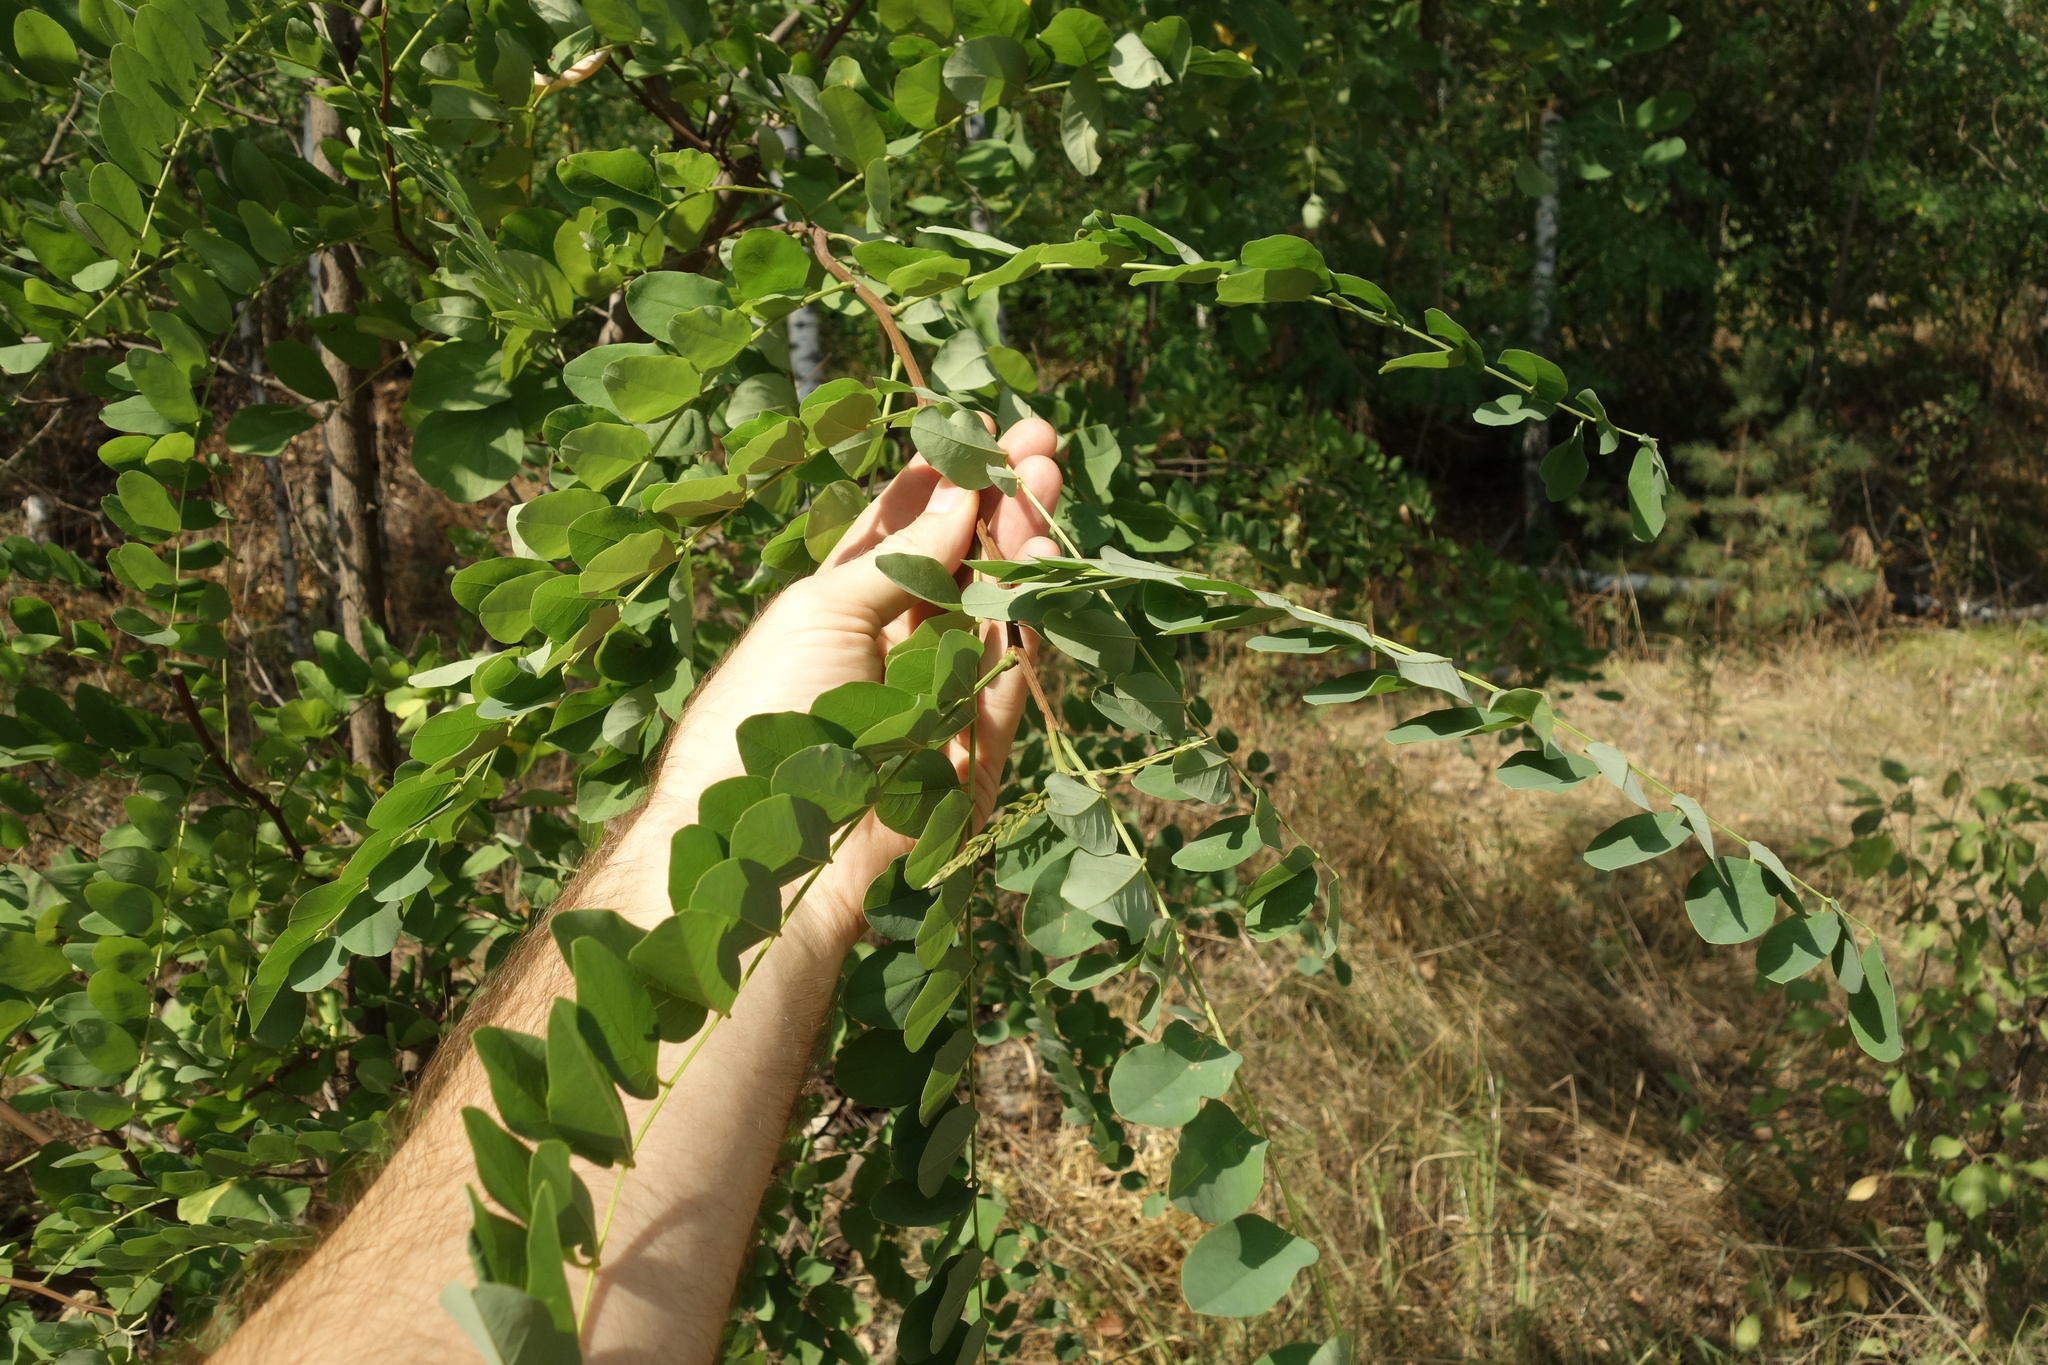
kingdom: Plantae
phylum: Tracheophyta
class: Magnoliopsida
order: Fabales
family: Fabaceae
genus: Robinia
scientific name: Robinia pseudoacacia
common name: Black locust
